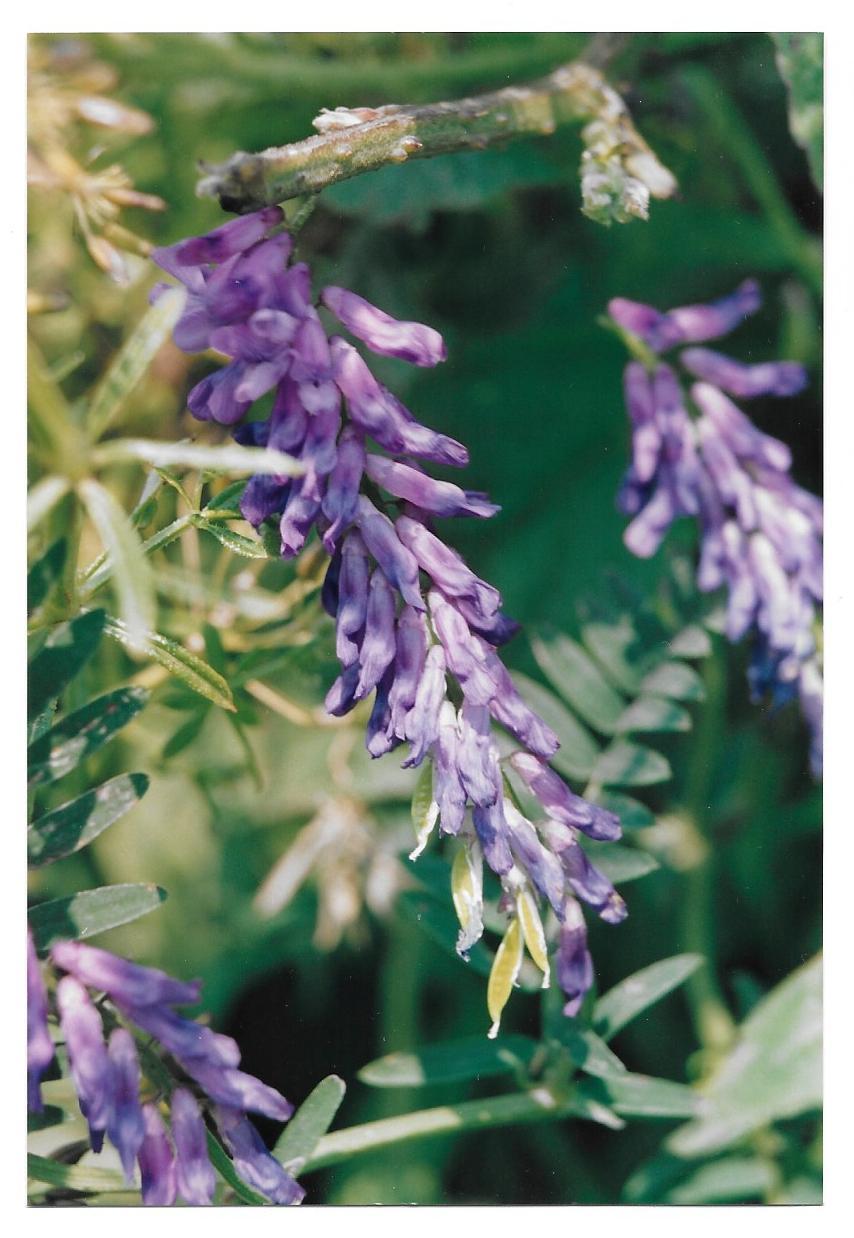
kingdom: Plantae
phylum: Tracheophyta
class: Magnoliopsida
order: Fabales
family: Fabaceae
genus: Vicia
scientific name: Vicia cracca
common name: Bird vetch
